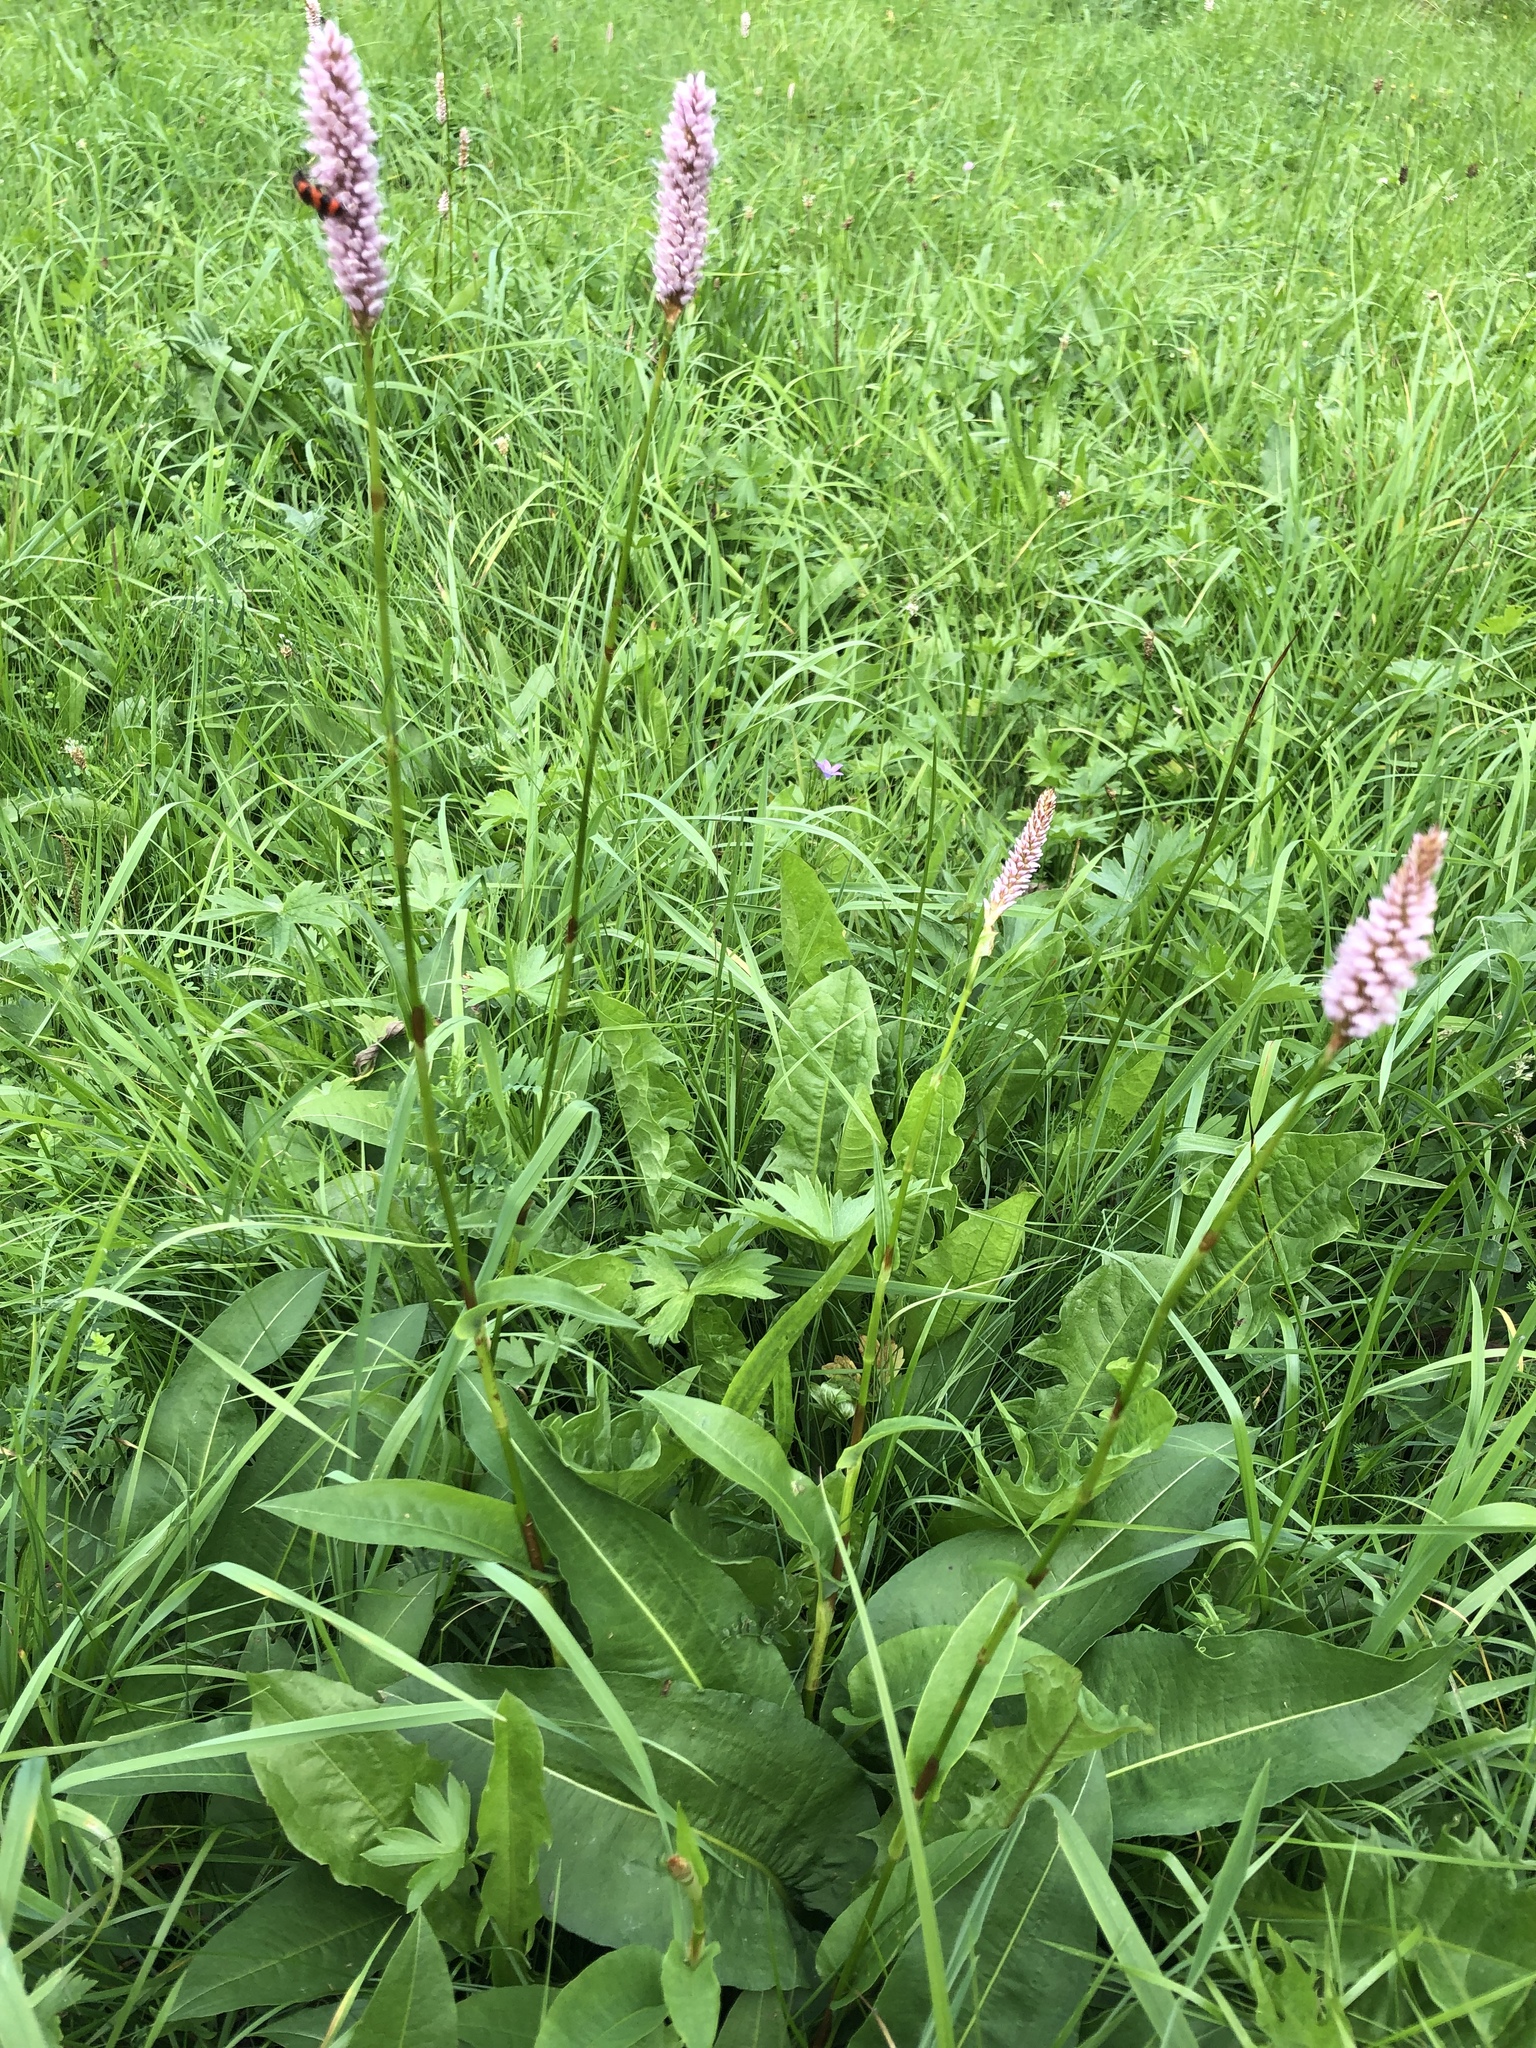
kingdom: Plantae
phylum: Tracheophyta
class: Magnoliopsida
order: Caryophyllales
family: Polygonaceae
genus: Bistorta
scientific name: Bistorta officinalis
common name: Common bistort
